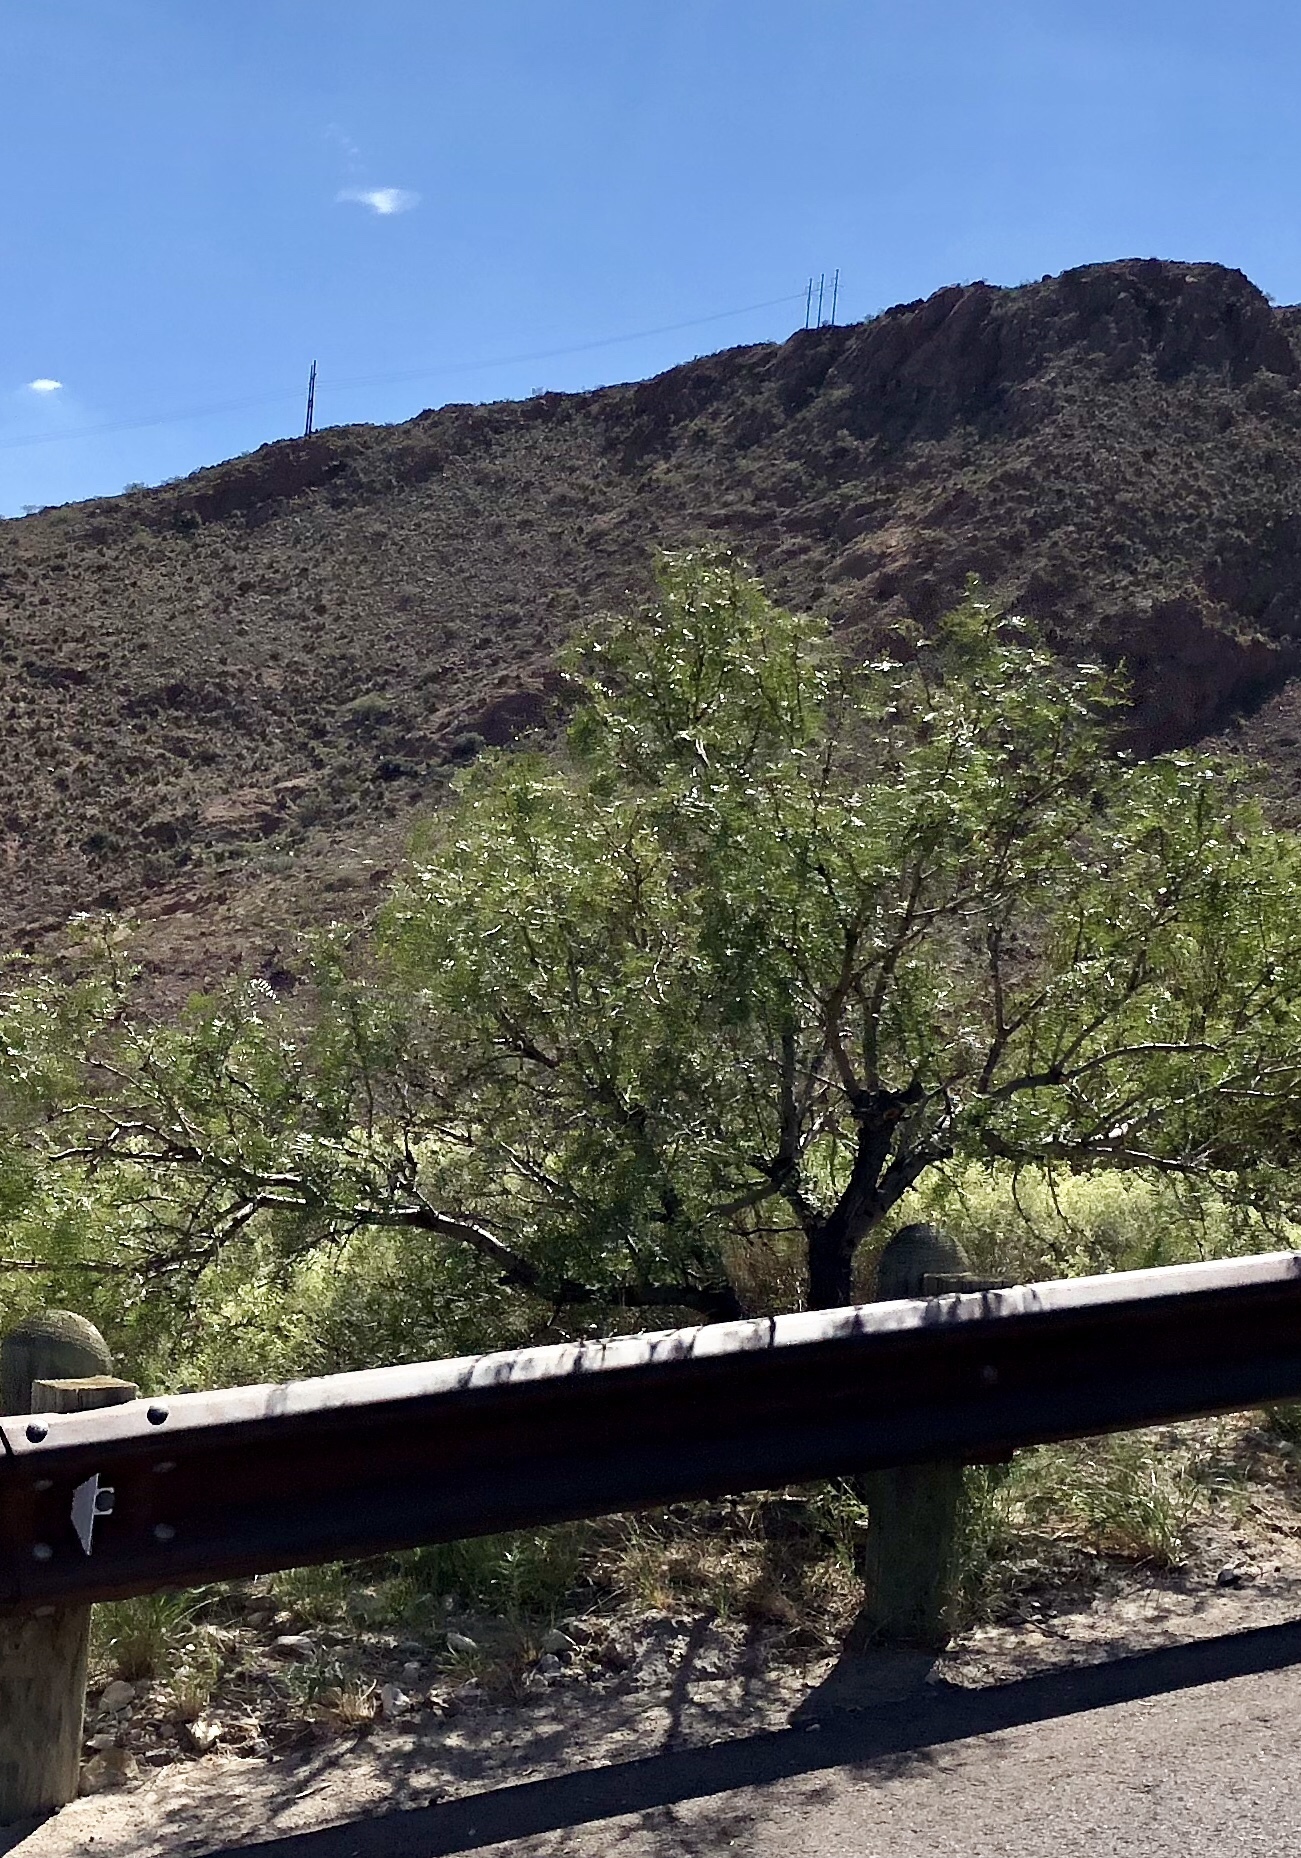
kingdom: Plantae
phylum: Tracheophyta
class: Magnoliopsida
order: Lamiales
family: Bignoniaceae
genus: Chilopsis
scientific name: Chilopsis linearis
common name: Desert-willow
